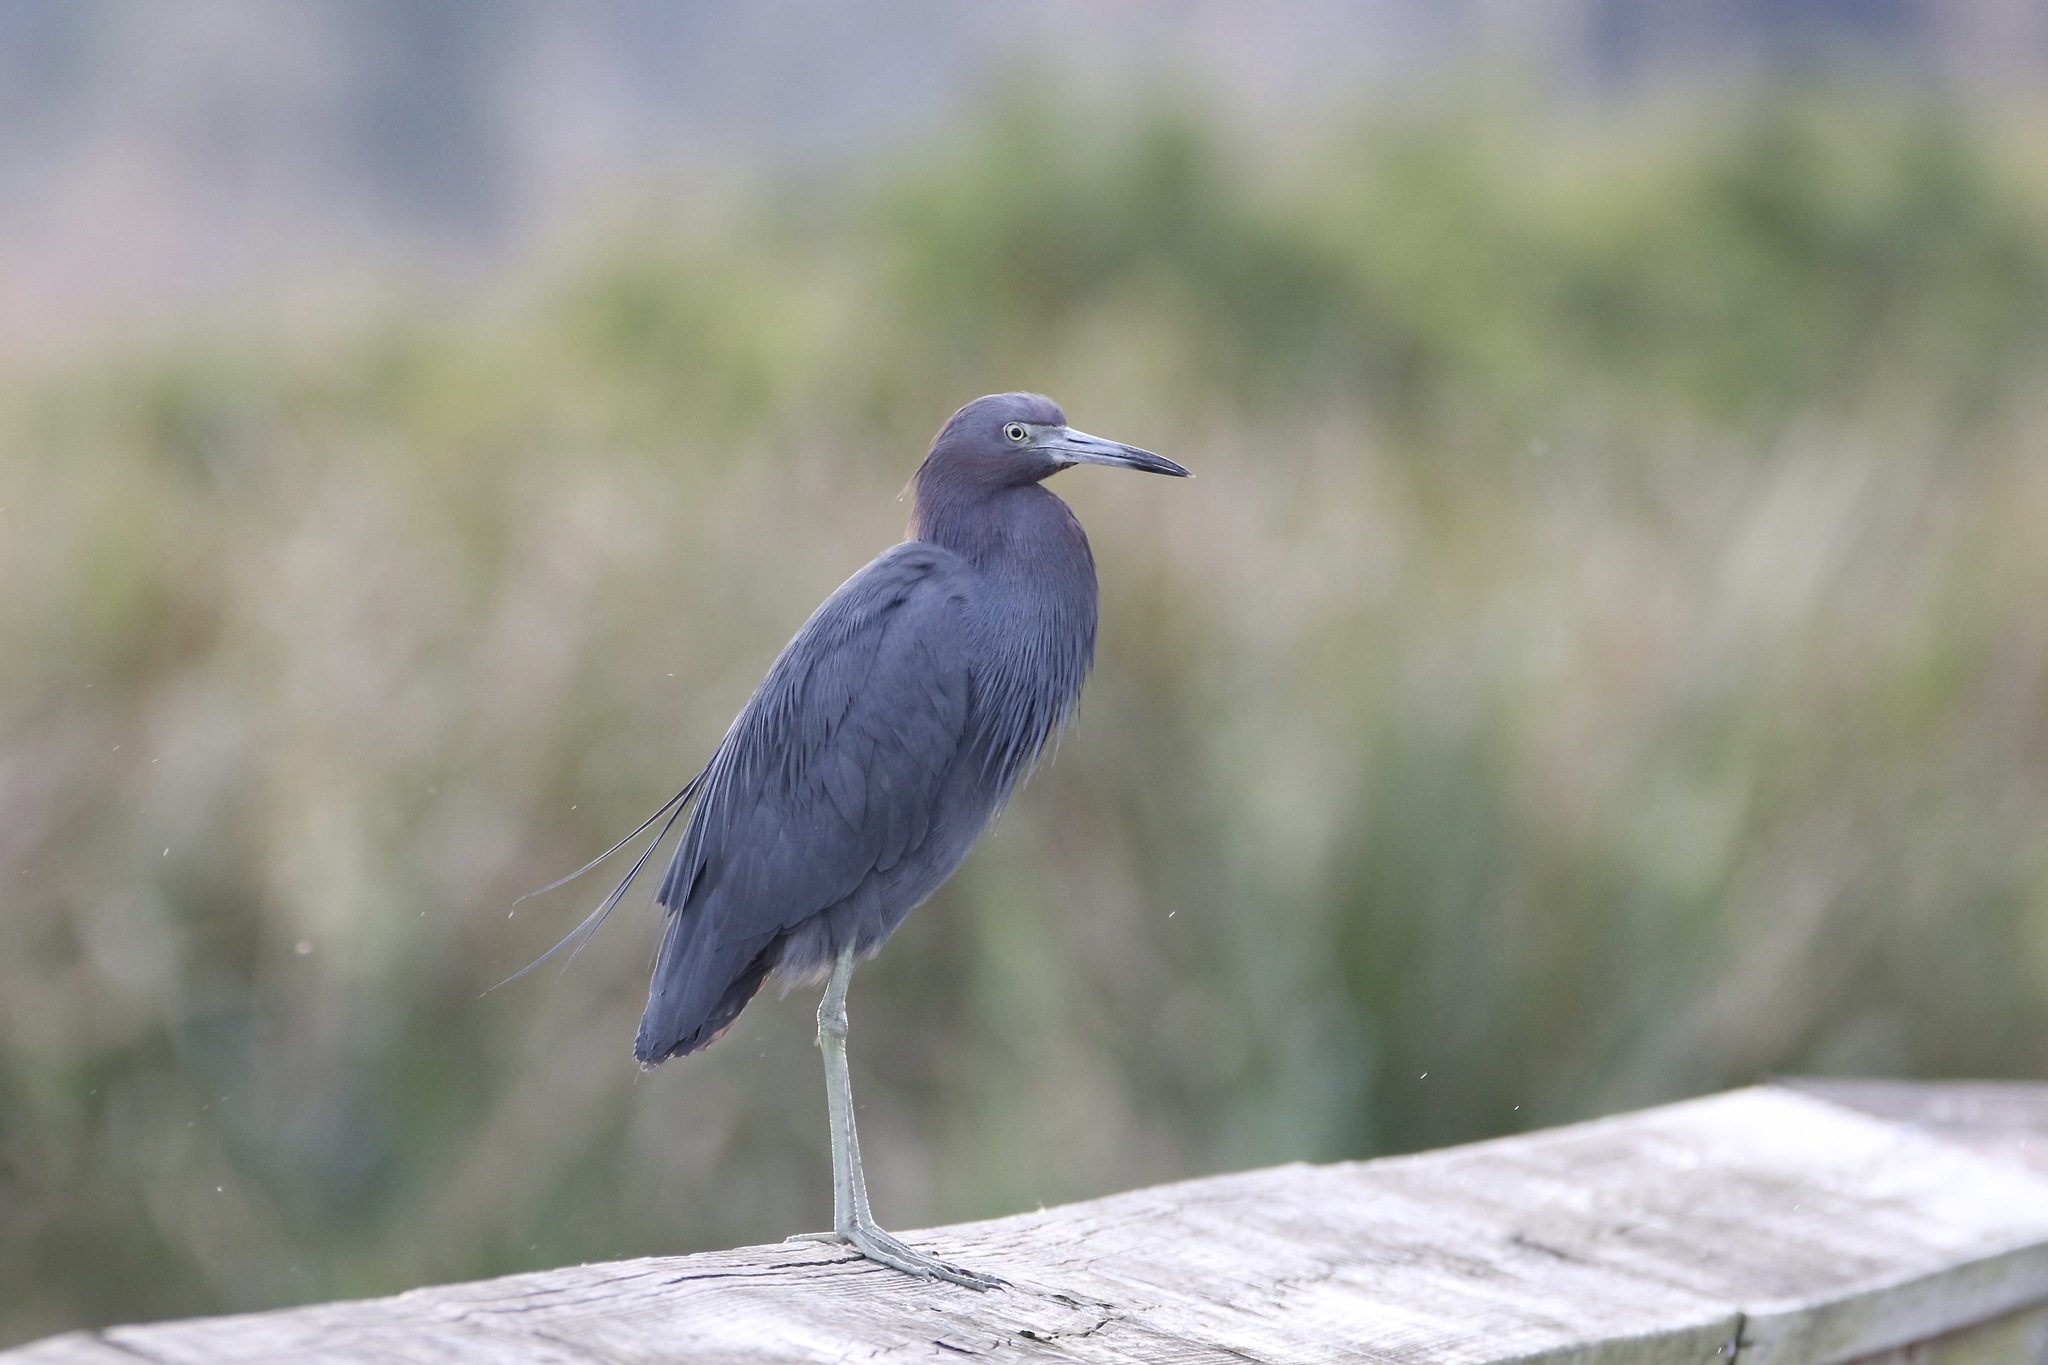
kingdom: Animalia
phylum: Chordata
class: Aves
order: Pelecaniformes
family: Ardeidae
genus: Egretta
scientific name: Egretta caerulea
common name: Little blue heron
